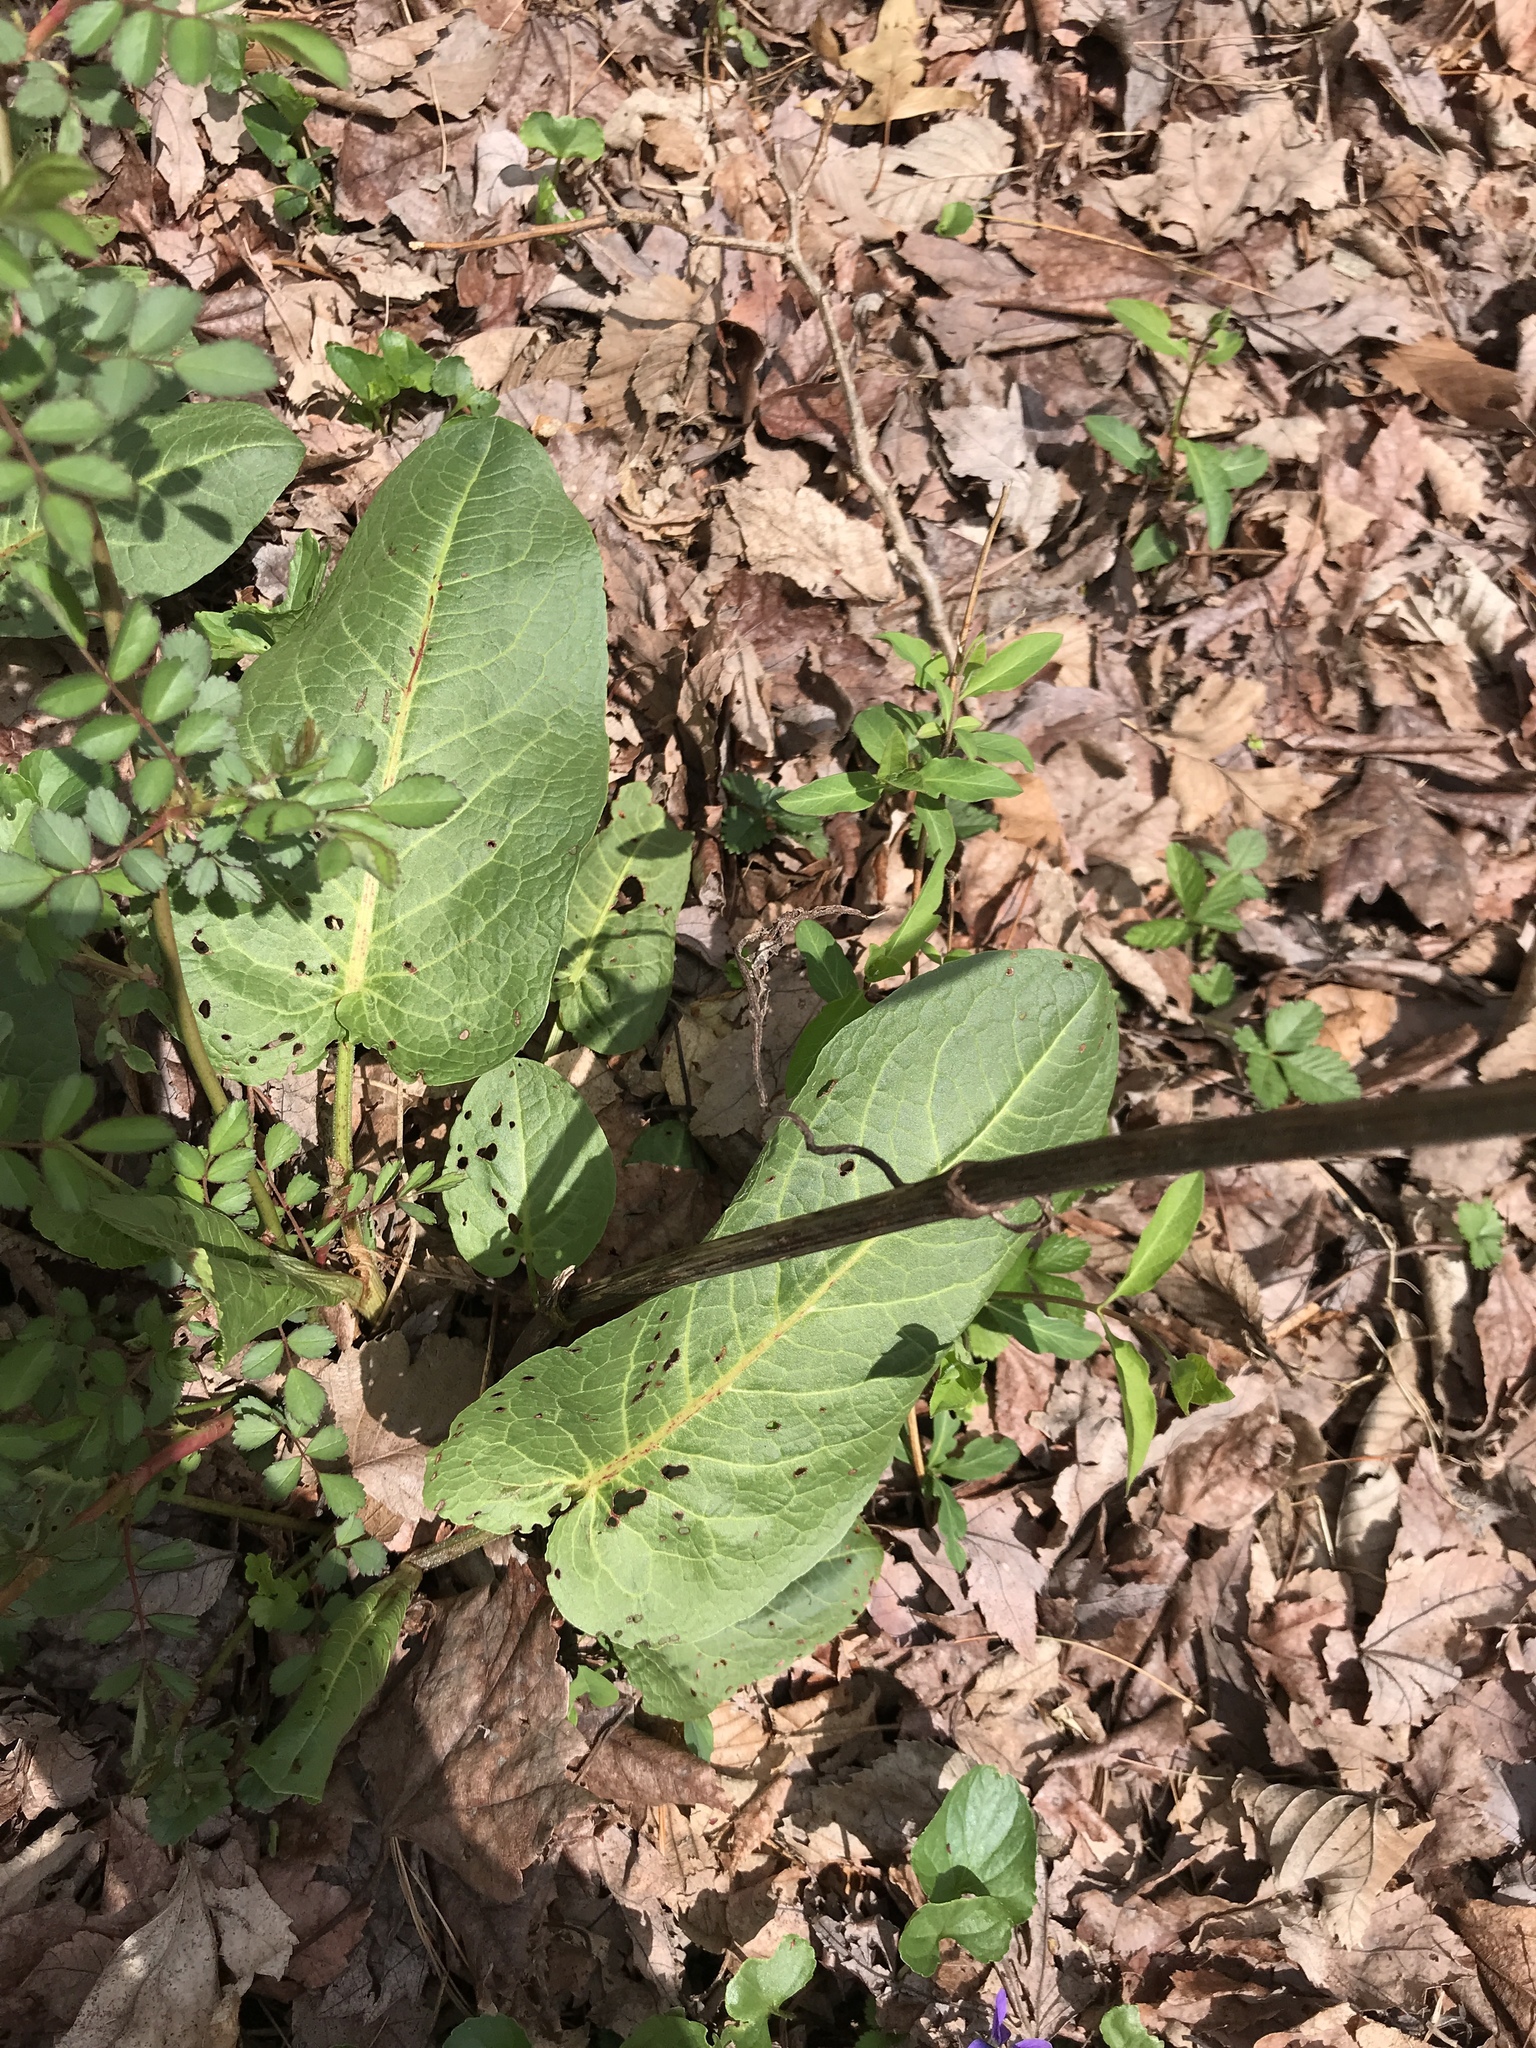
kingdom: Plantae
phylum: Tracheophyta
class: Magnoliopsida
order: Caryophyllales
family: Polygonaceae
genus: Rumex
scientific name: Rumex obtusifolius
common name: Bitter dock
